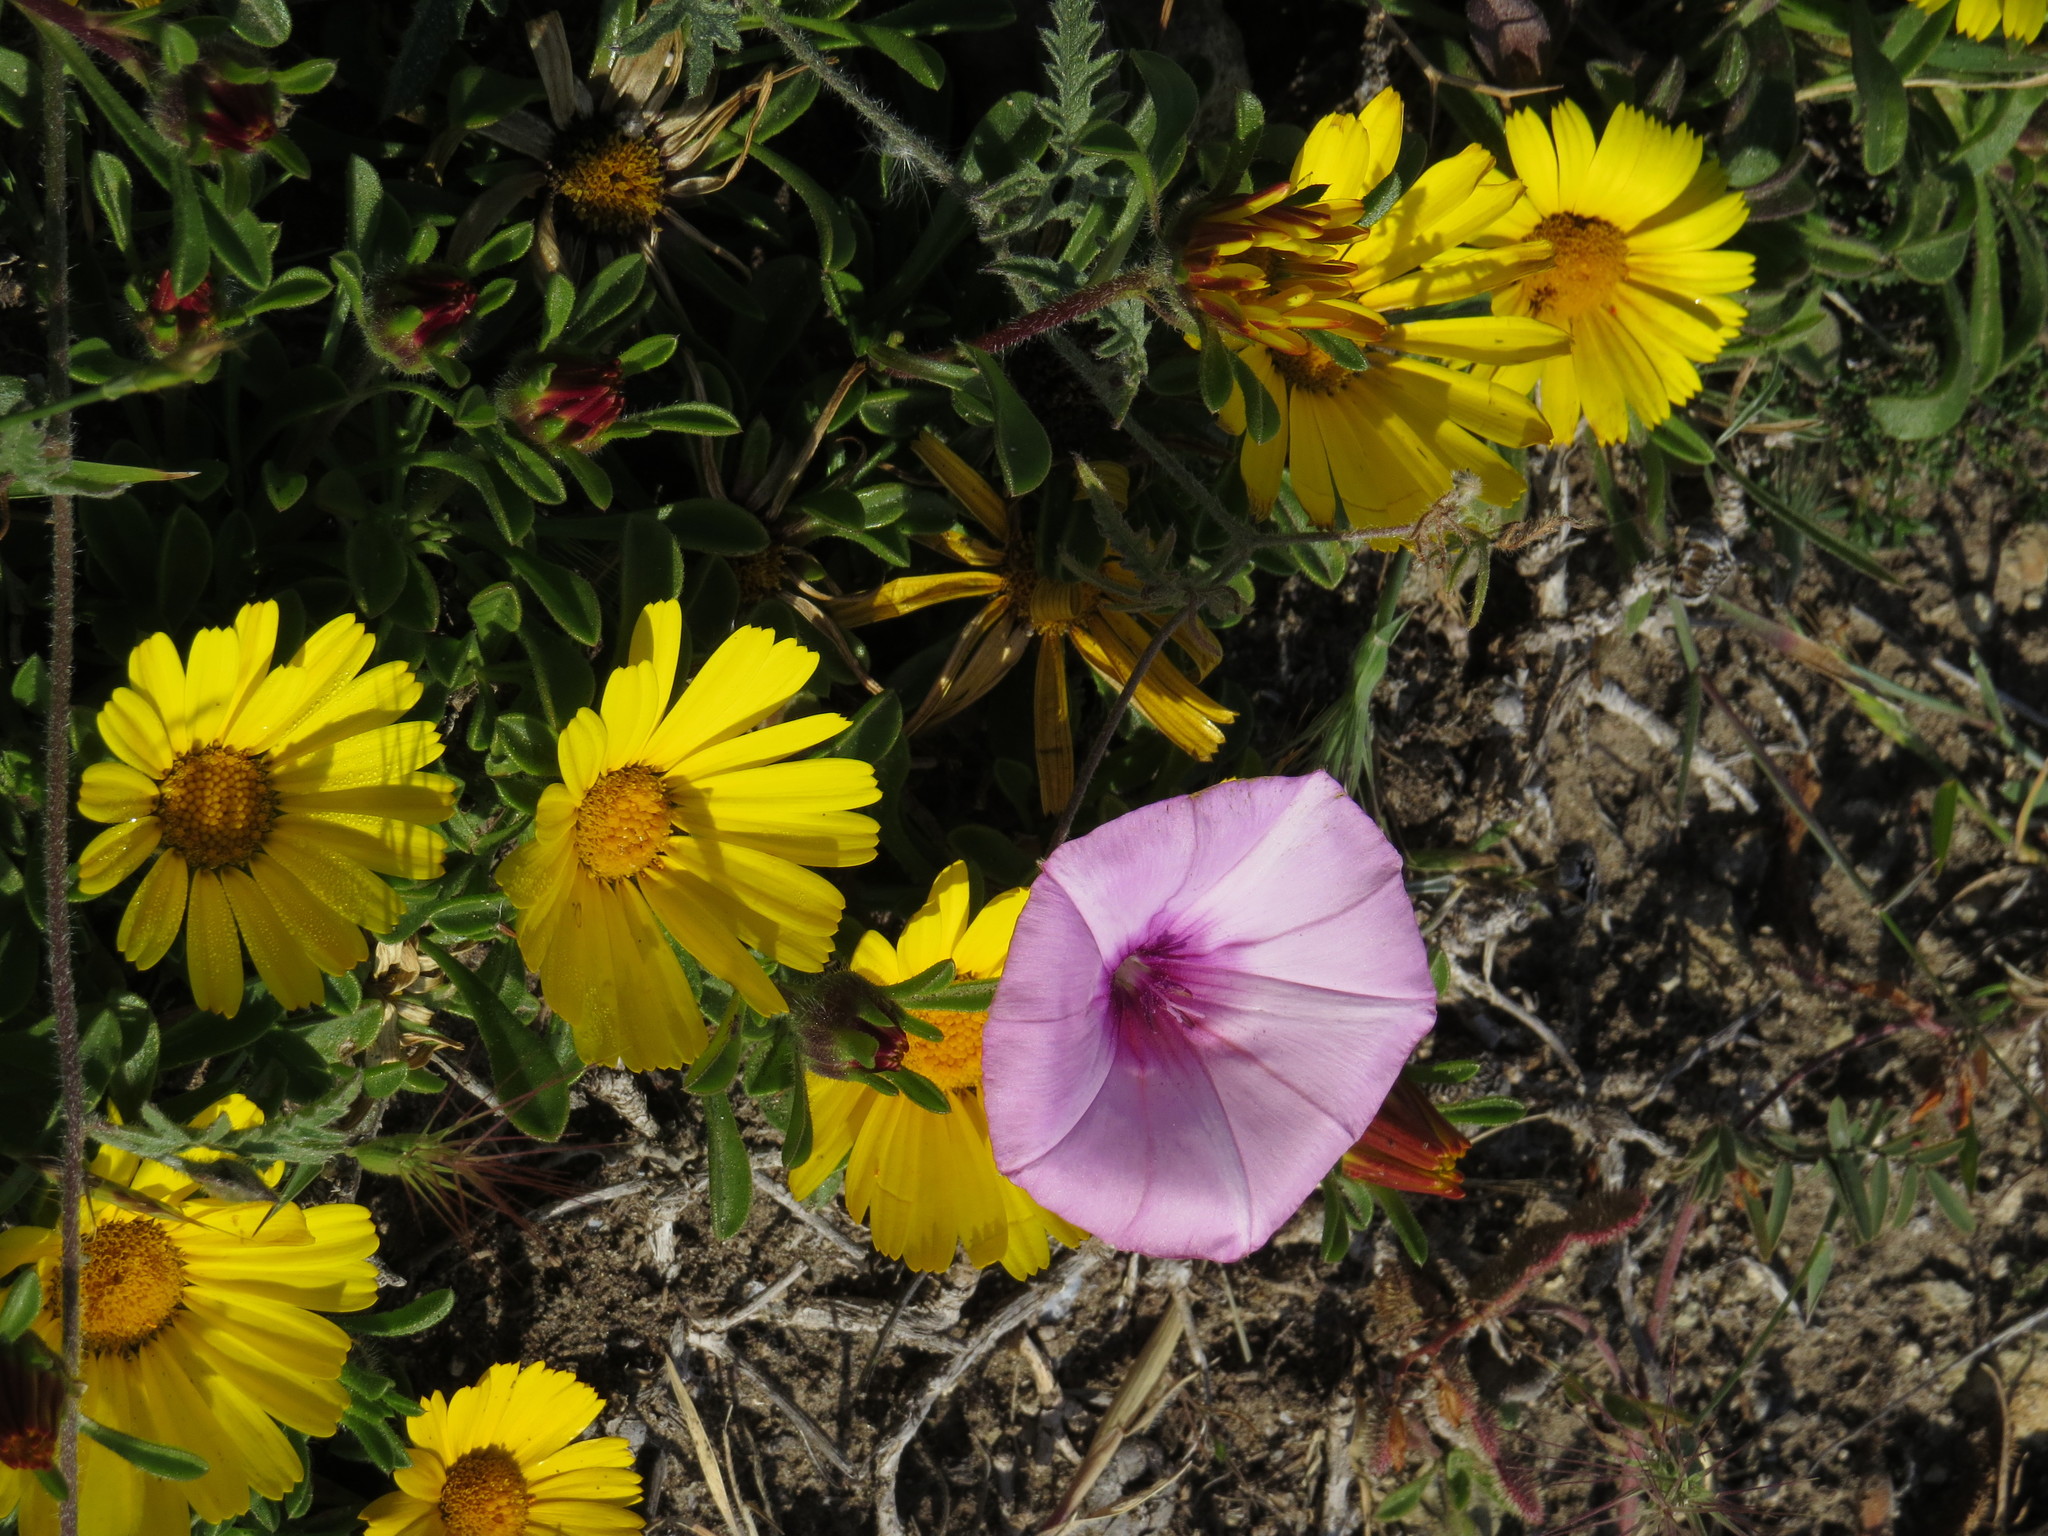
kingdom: Plantae
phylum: Tracheophyta
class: Magnoliopsida
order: Solanales
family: Convolvulaceae
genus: Convolvulus
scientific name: Convolvulus althaeoides
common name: Mallow bindweed
